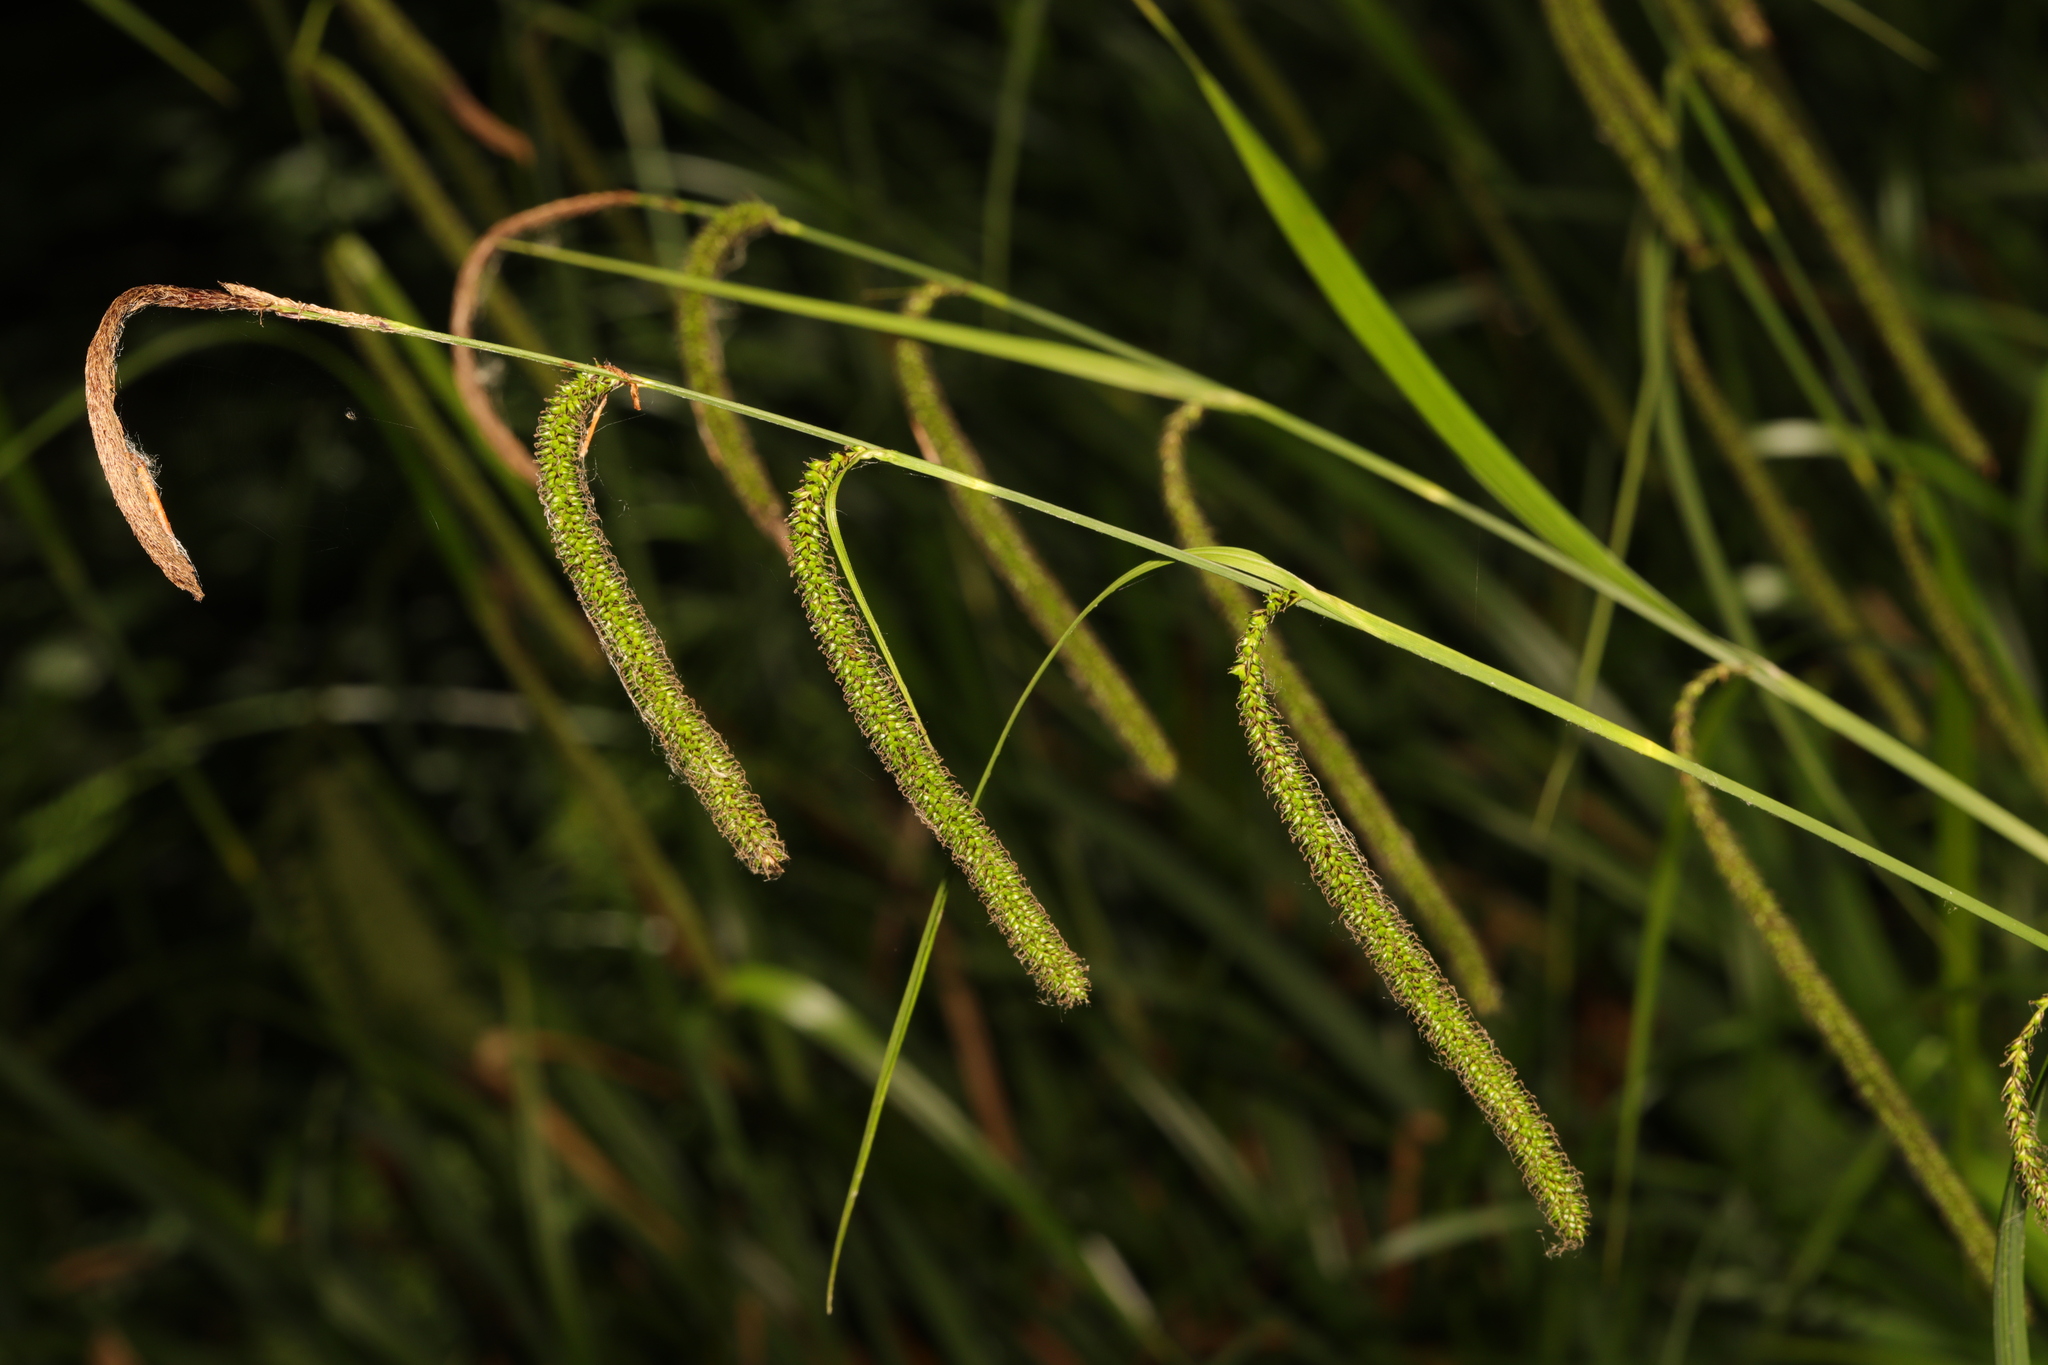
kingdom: Plantae
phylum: Tracheophyta
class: Liliopsida
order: Poales
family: Cyperaceae
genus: Carex
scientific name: Carex pendula
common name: Pendulous sedge
